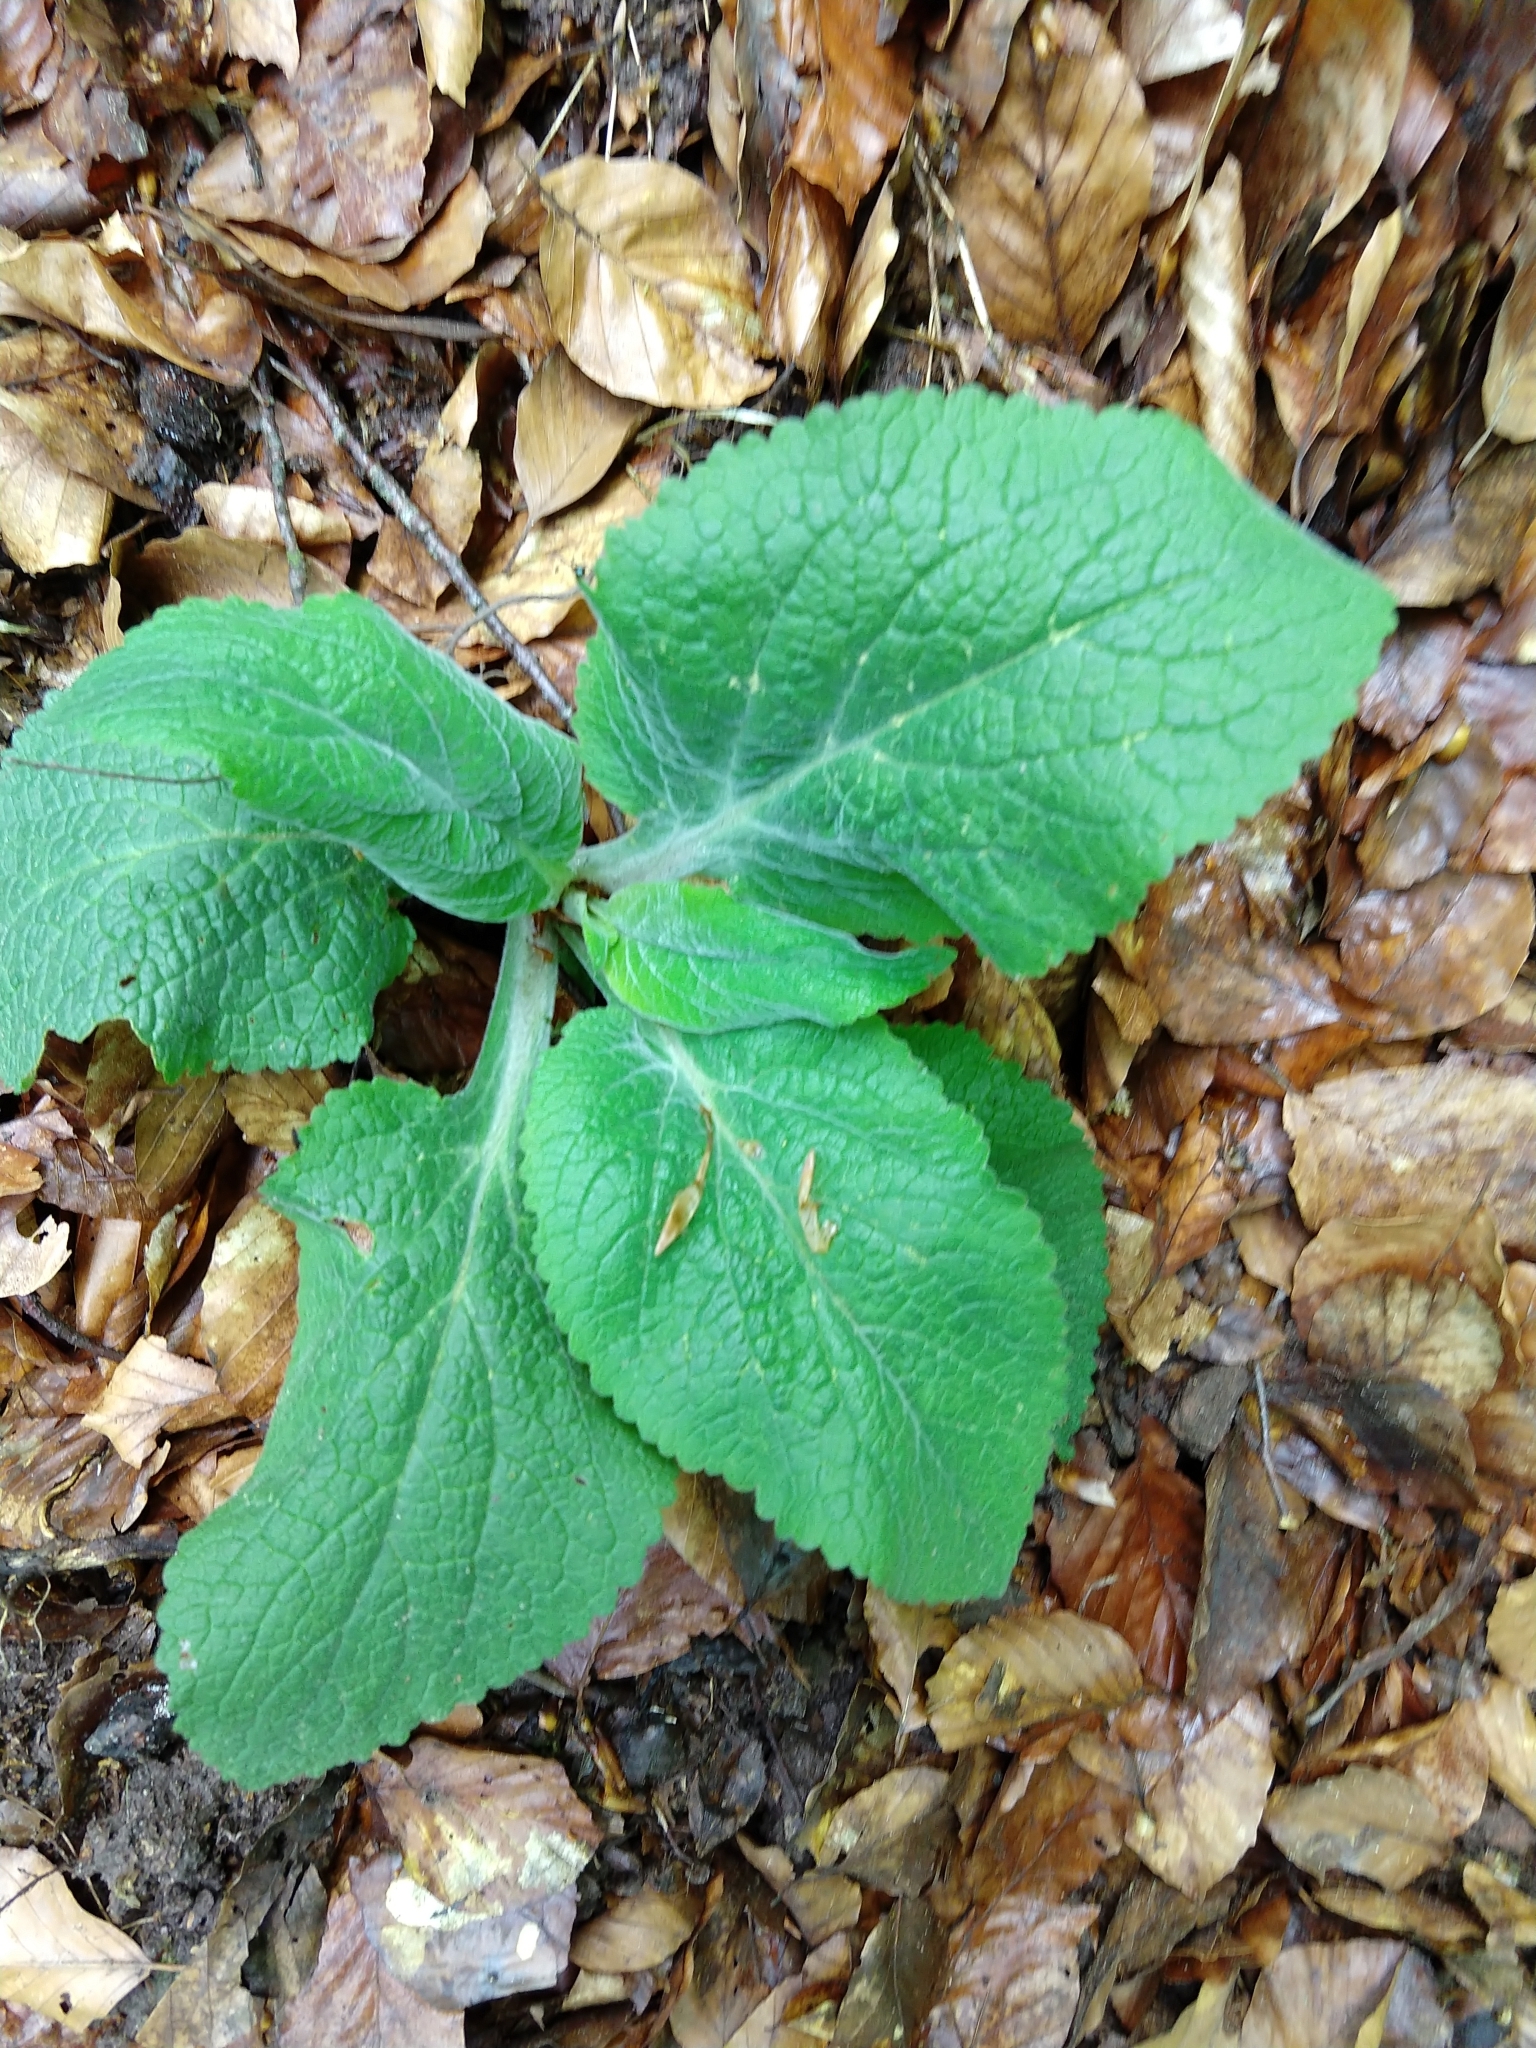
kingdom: Plantae
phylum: Tracheophyta
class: Magnoliopsida
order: Lamiales
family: Plantaginaceae
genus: Digitalis
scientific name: Digitalis purpurea
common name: Foxglove
